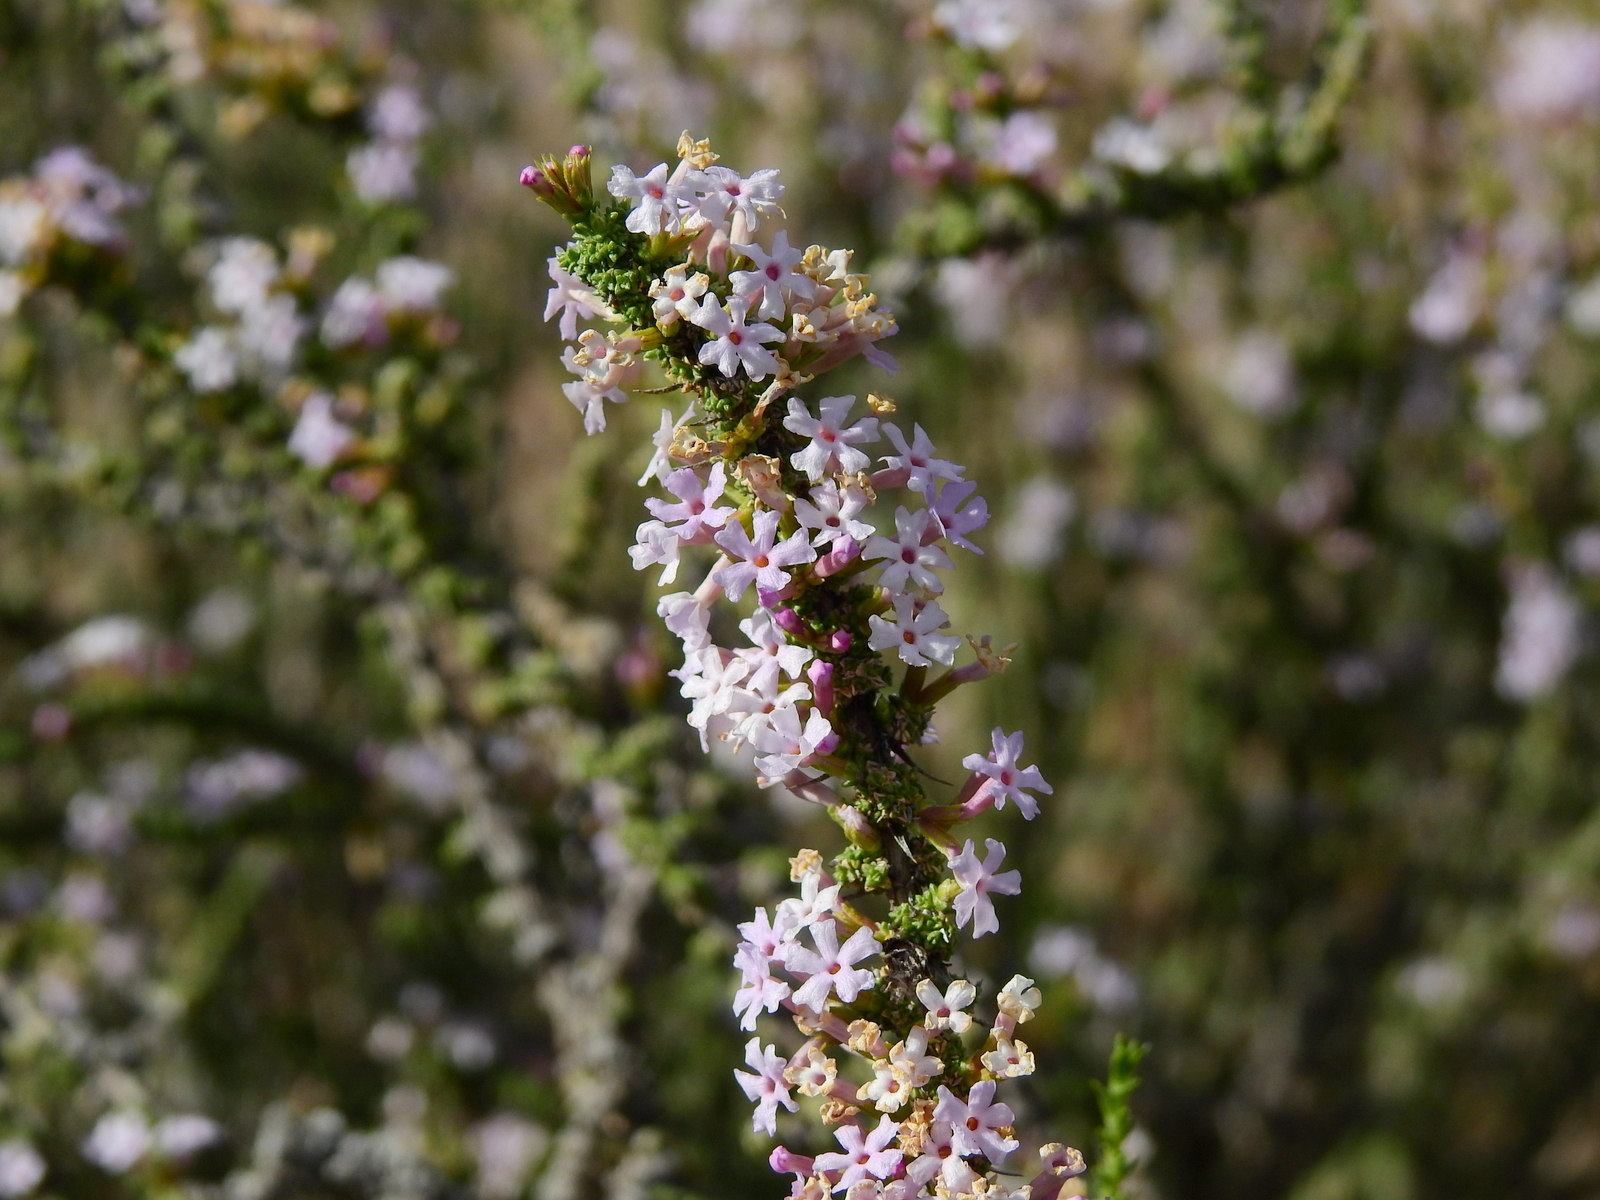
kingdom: Plantae
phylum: Tracheophyta
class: Magnoliopsida
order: Lamiales
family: Verbenaceae
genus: Junellia
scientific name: Junellia seriphioides
